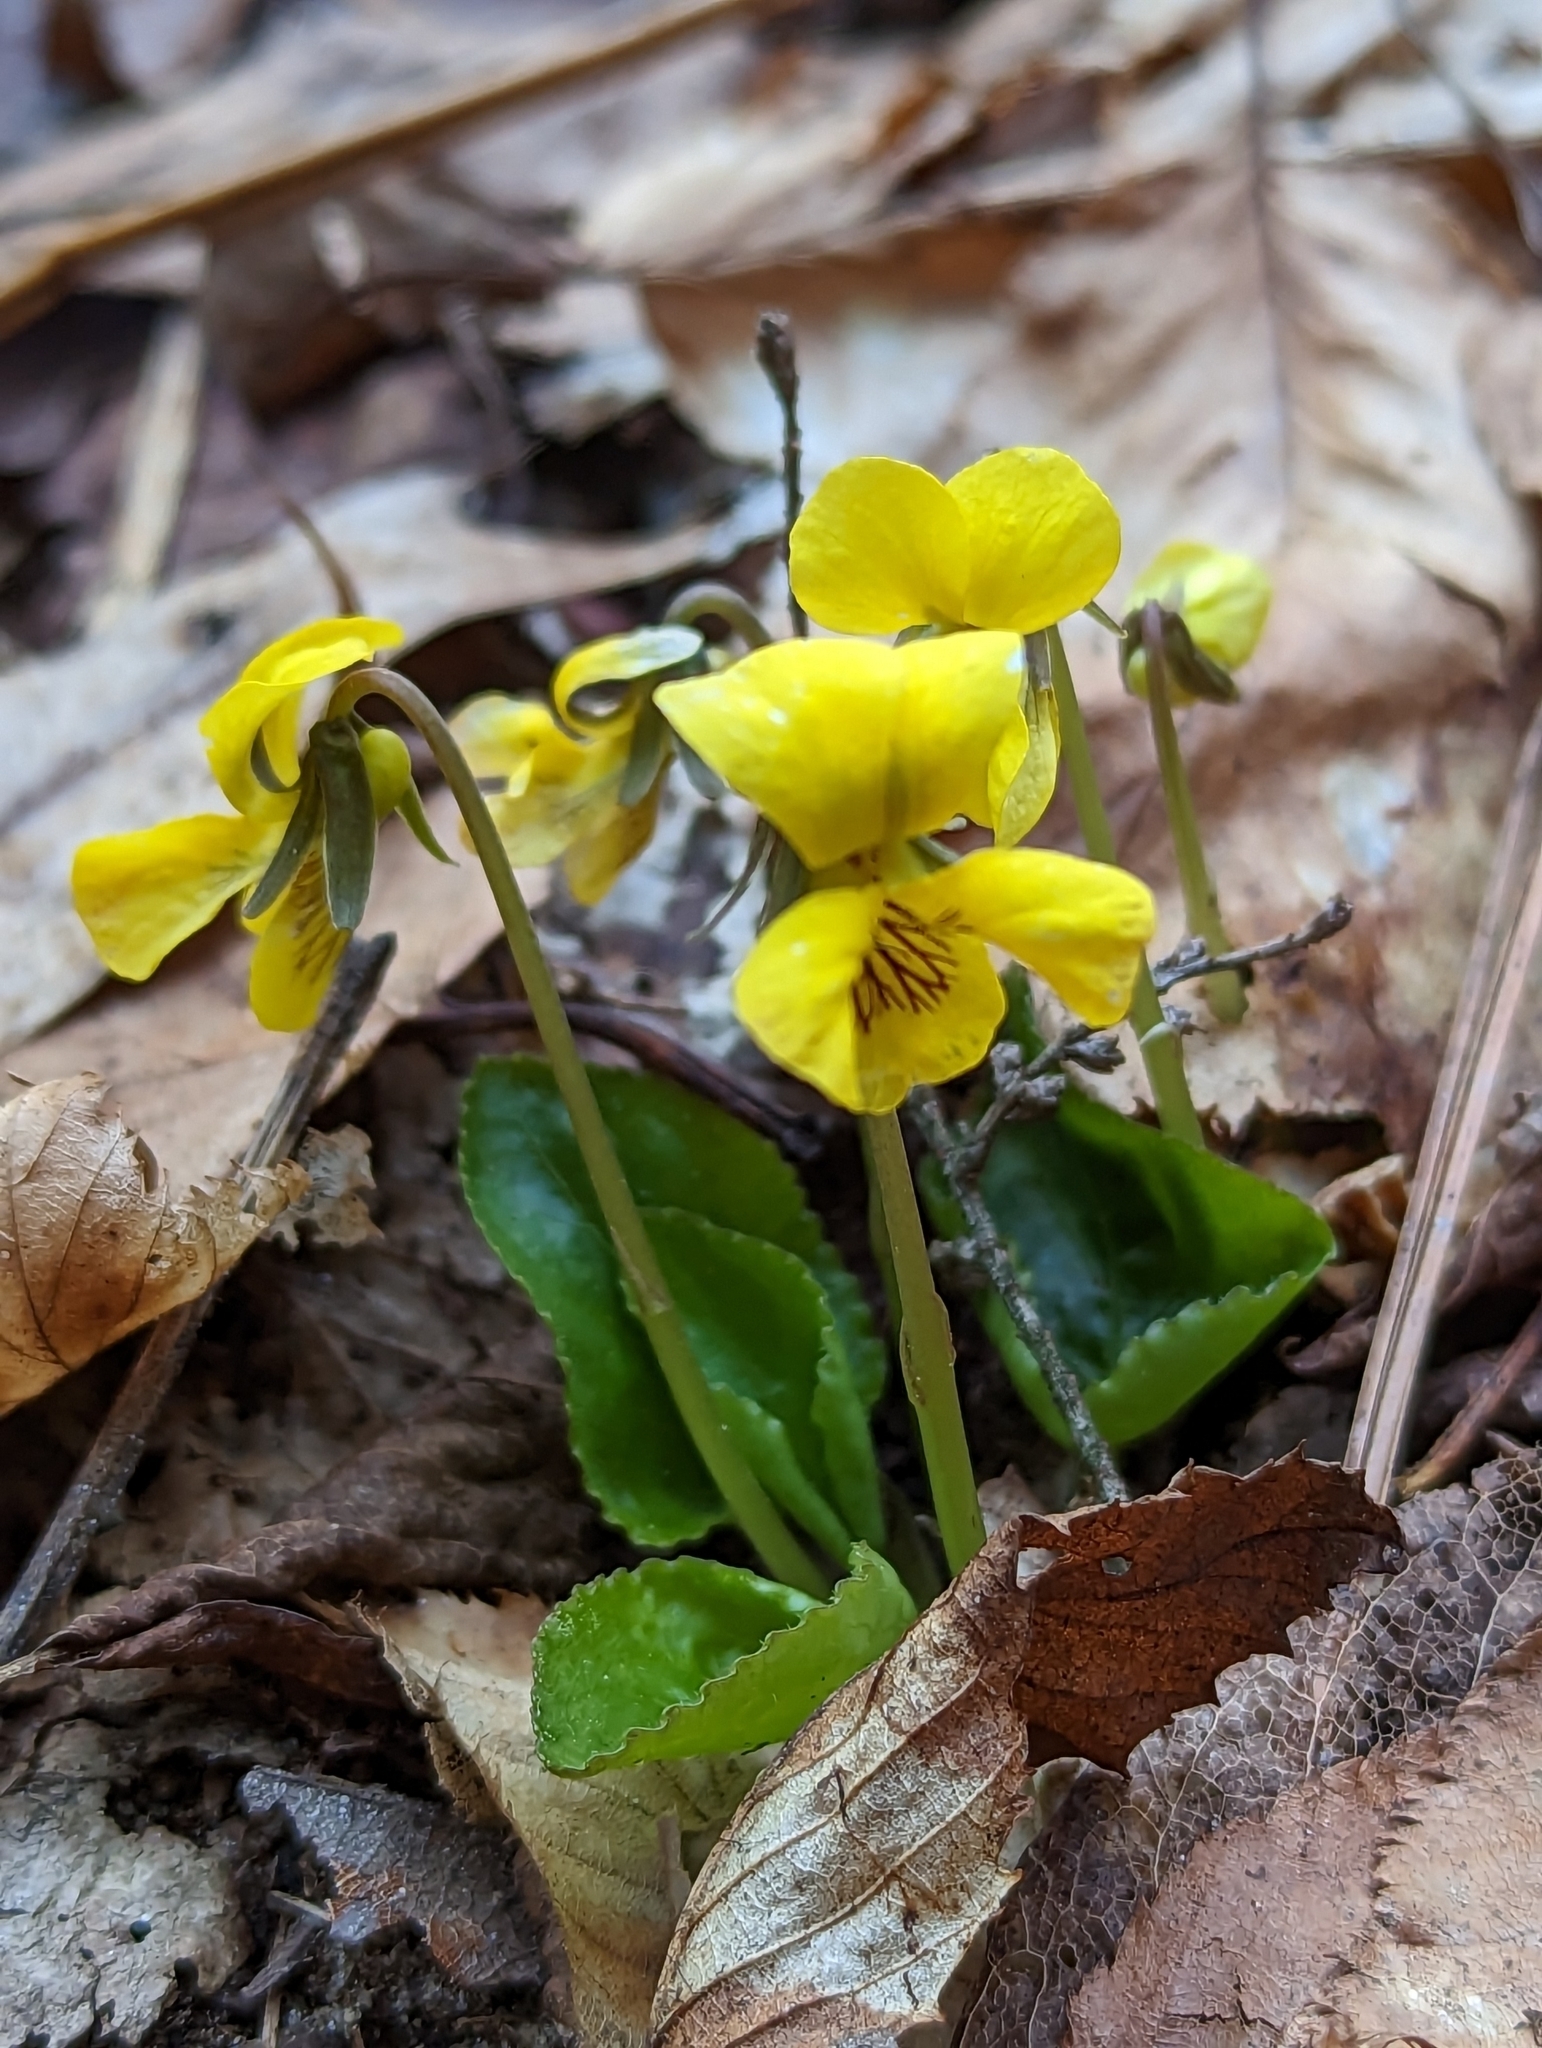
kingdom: Plantae
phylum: Tracheophyta
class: Magnoliopsida
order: Malpighiales
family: Violaceae
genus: Viola
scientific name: Viola rotundifolia
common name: Early yellow violet
